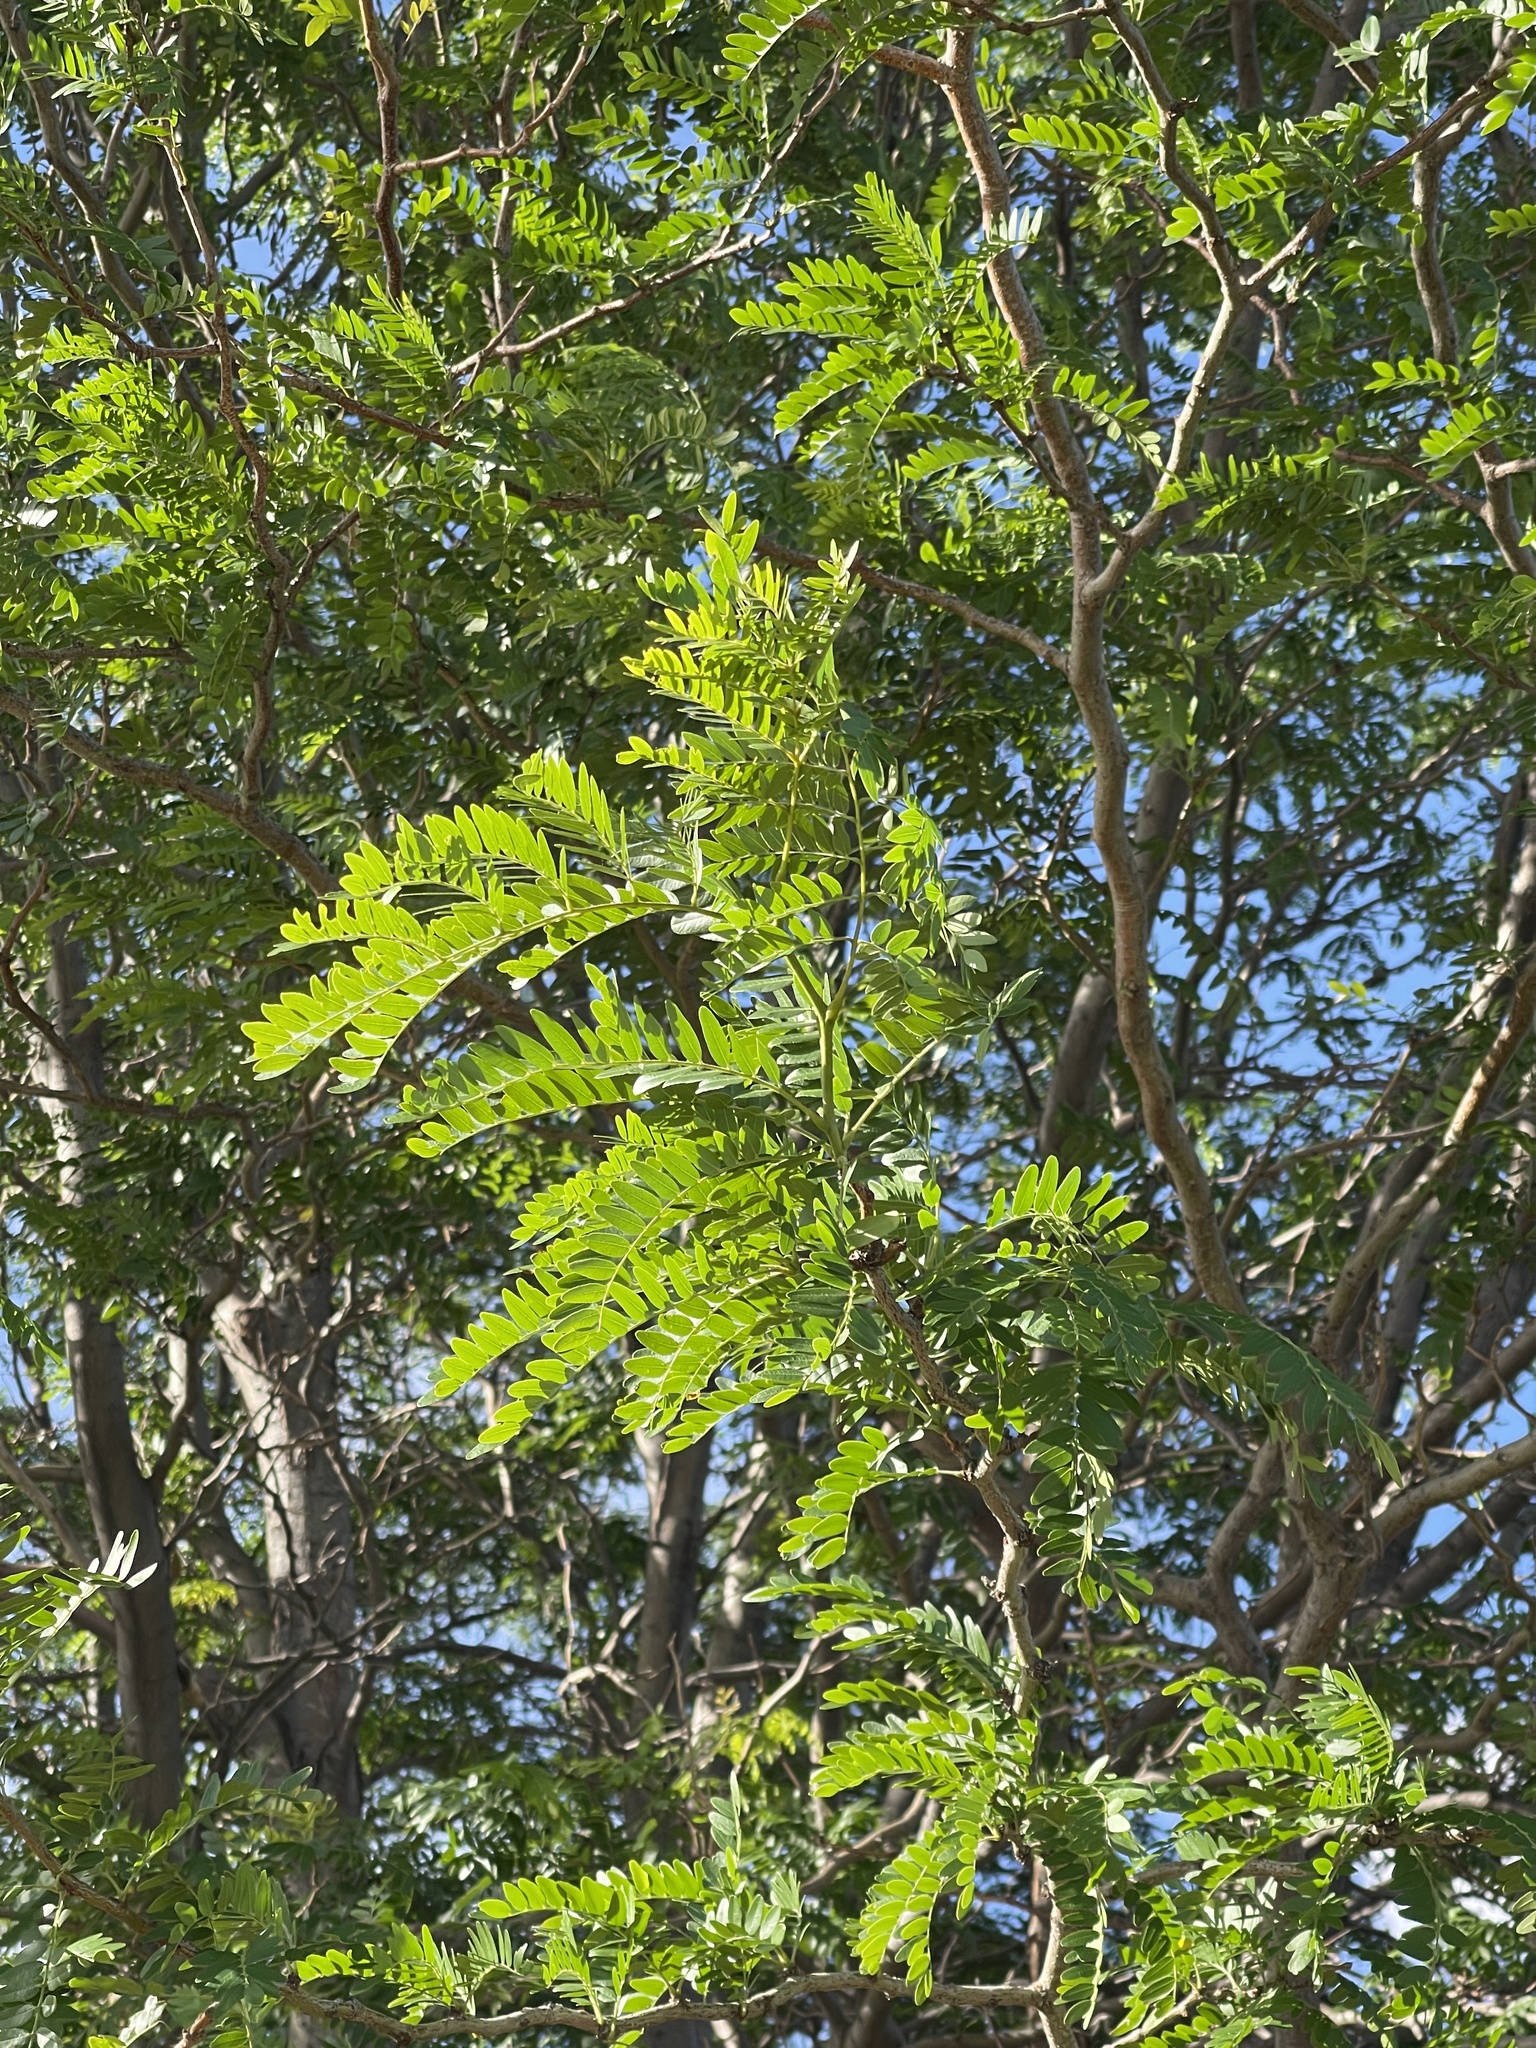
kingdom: Plantae
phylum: Tracheophyta
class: Magnoliopsida
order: Fabales
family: Fabaceae
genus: Robinia
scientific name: Robinia pseudoacacia
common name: Black locust
